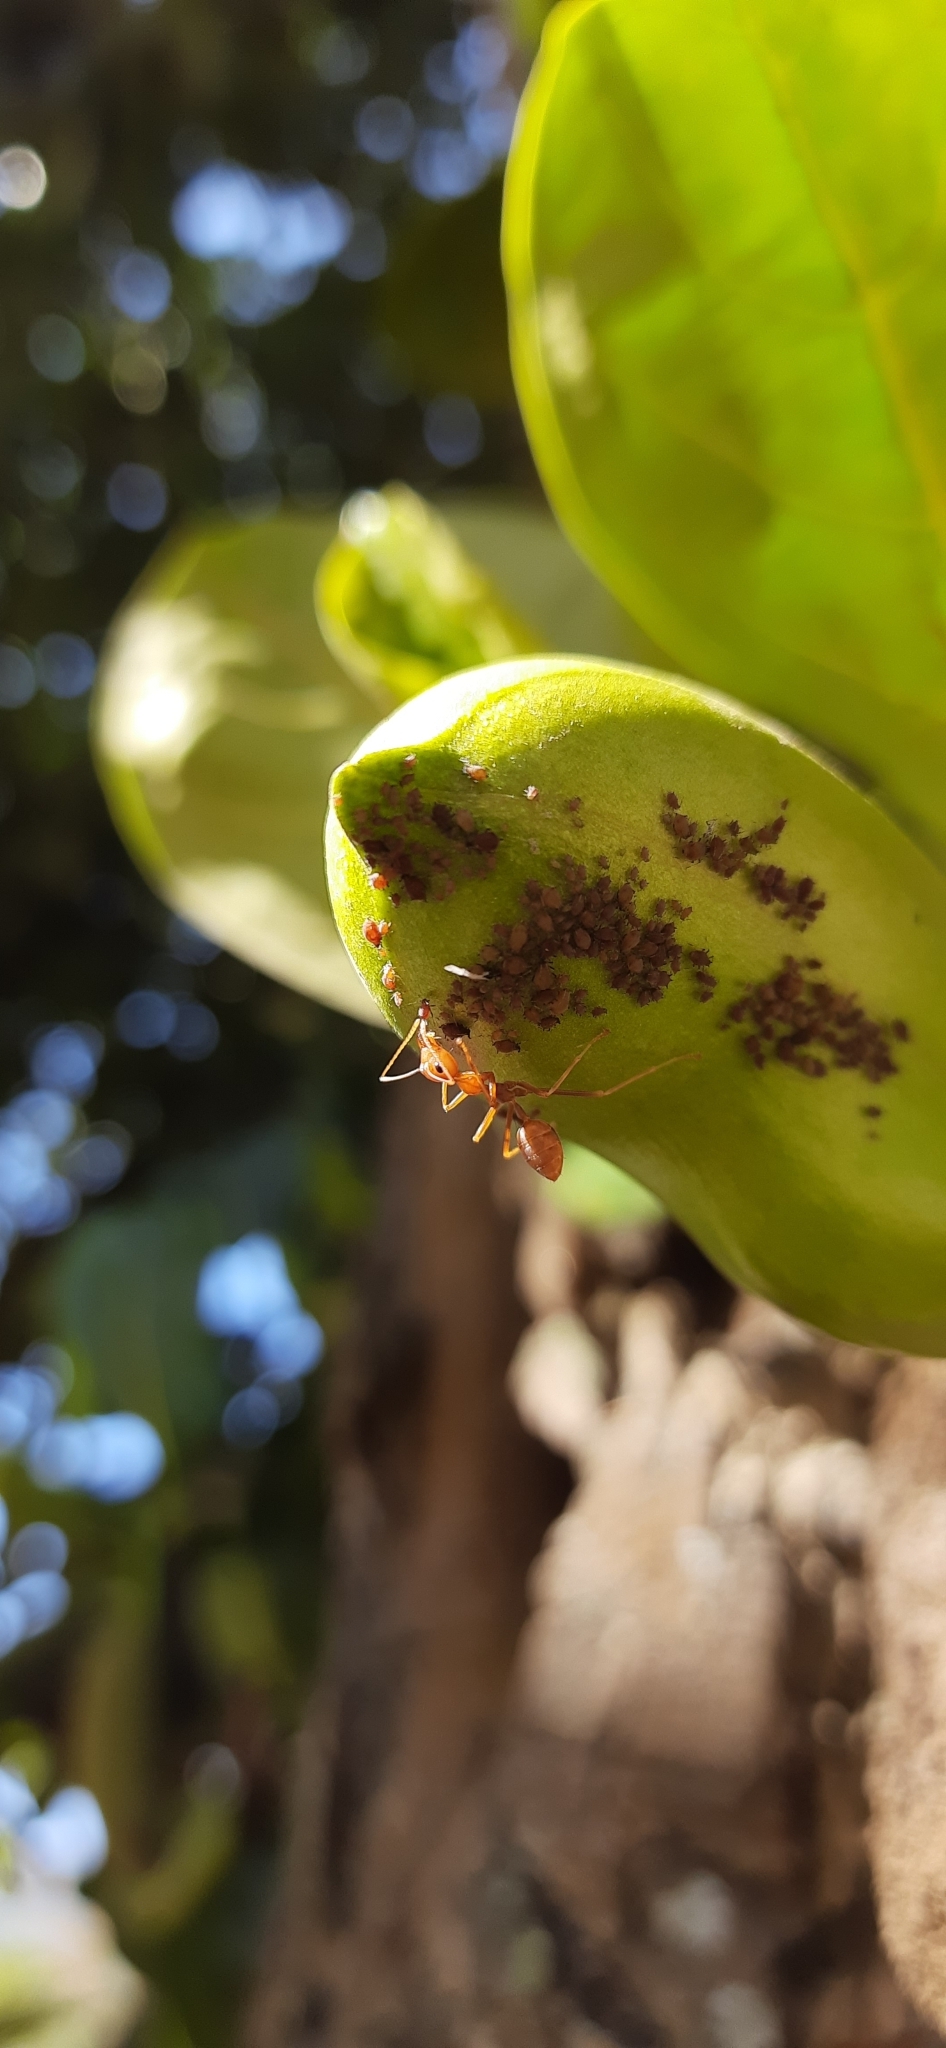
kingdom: Animalia
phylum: Arthropoda
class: Insecta
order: Hymenoptera
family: Formicidae
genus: Oecophylla
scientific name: Oecophylla smaragdina
